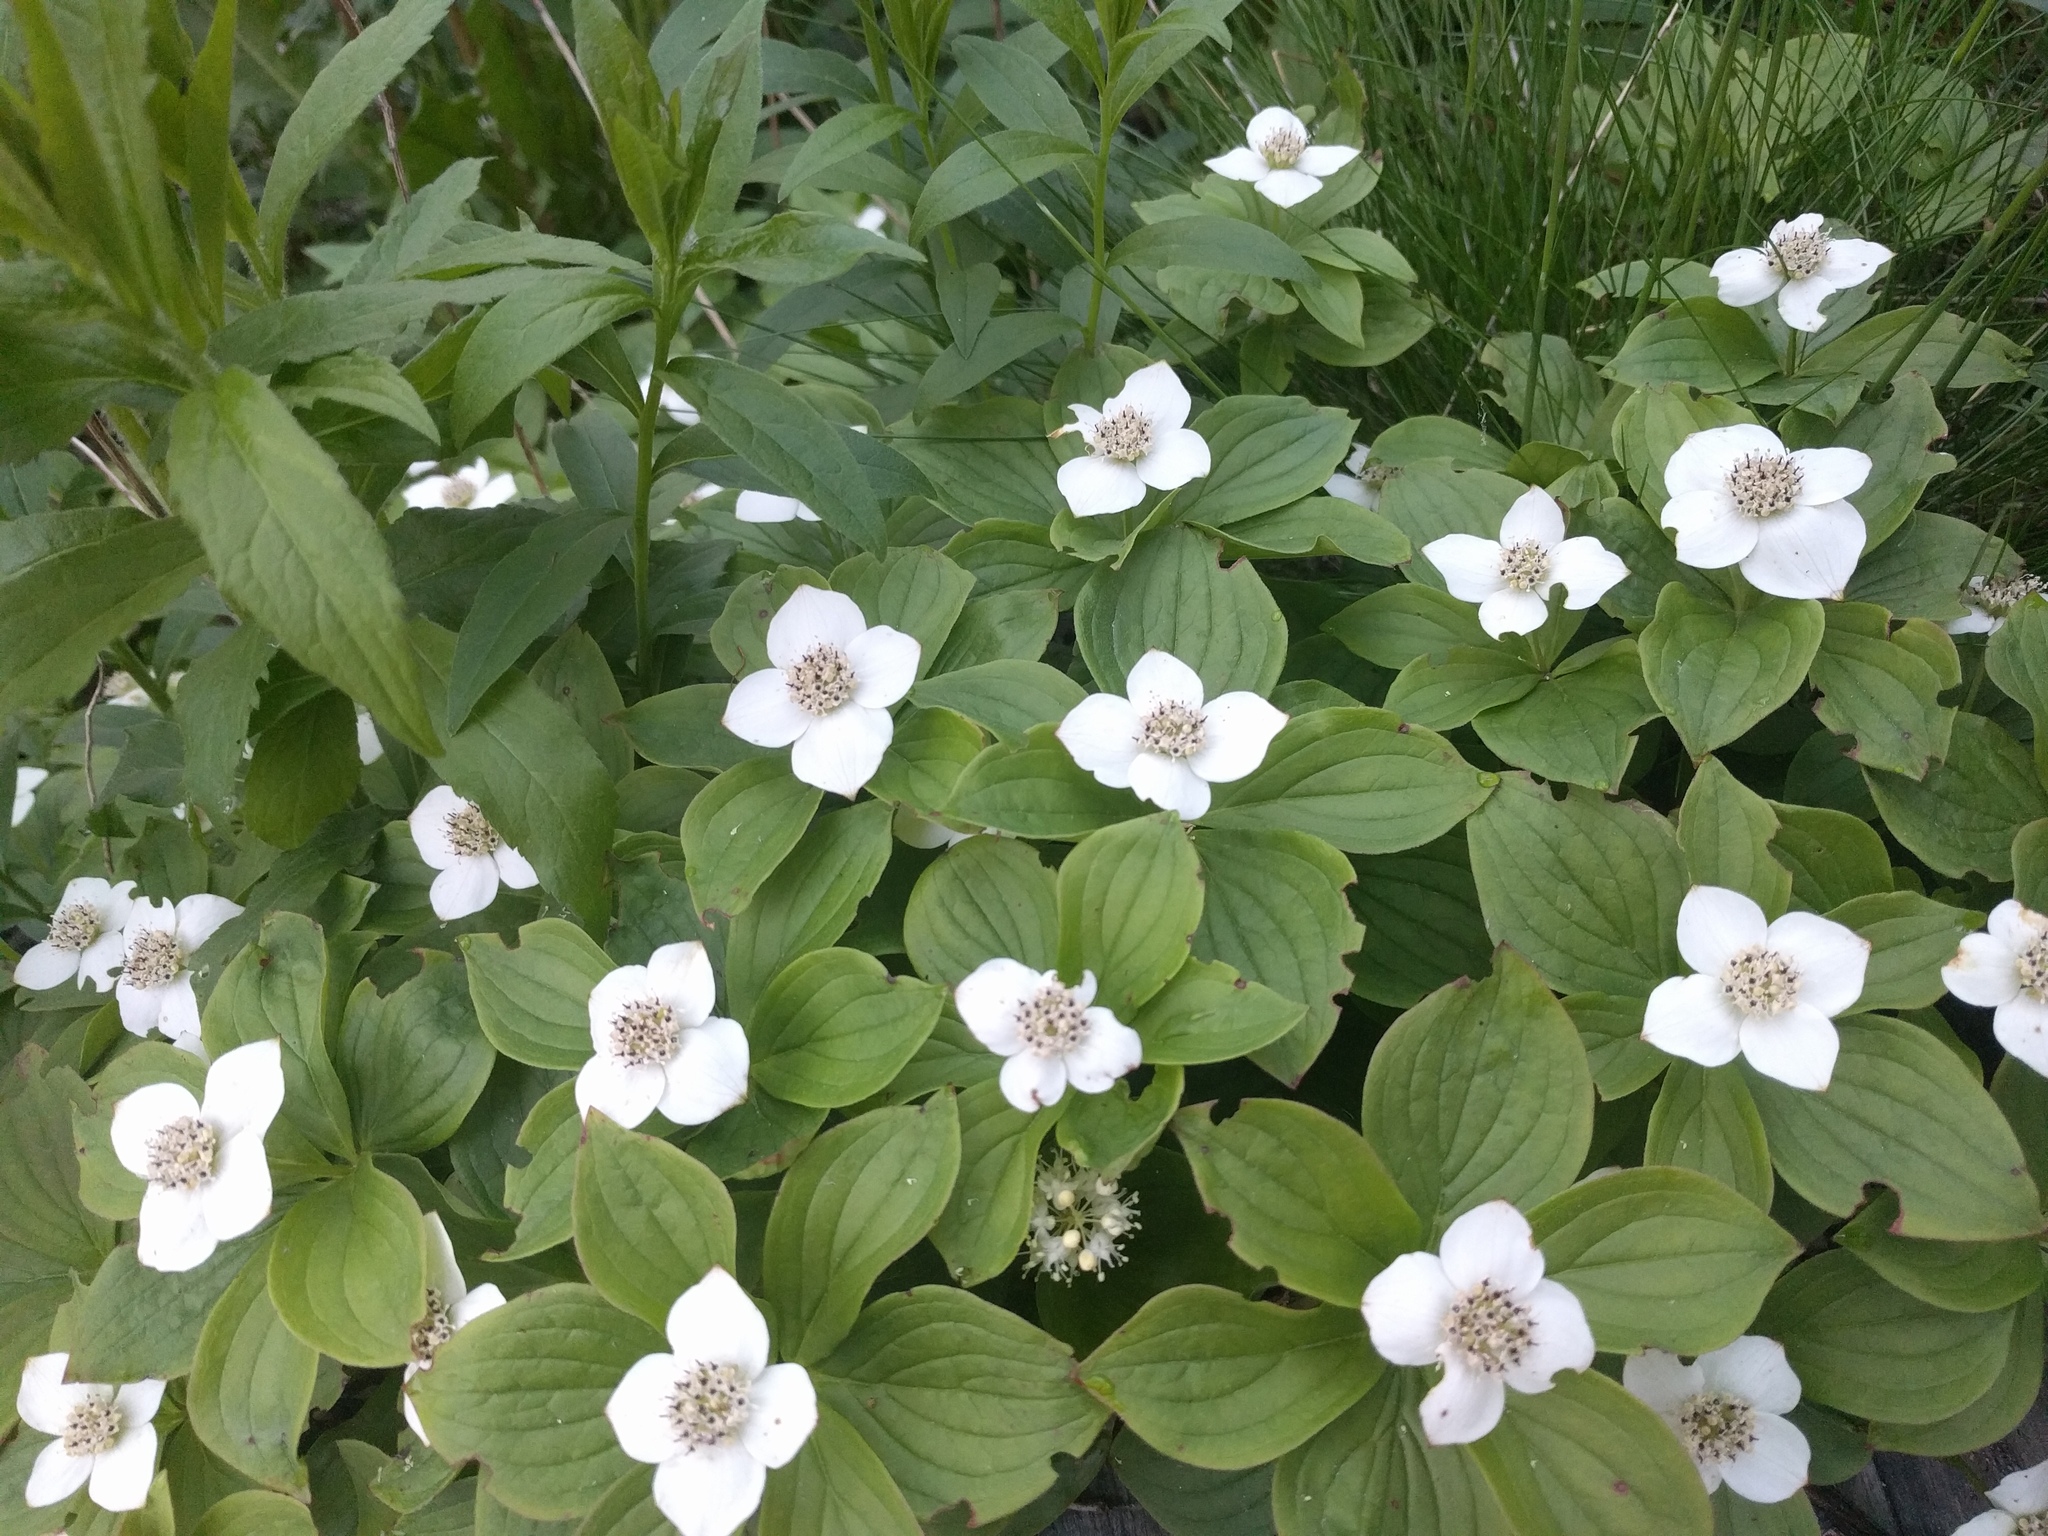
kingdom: Plantae
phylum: Tracheophyta
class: Magnoliopsida
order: Cornales
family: Cornaceae
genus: Cornus
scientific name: Cornus canadensis
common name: Creeping dogwood
